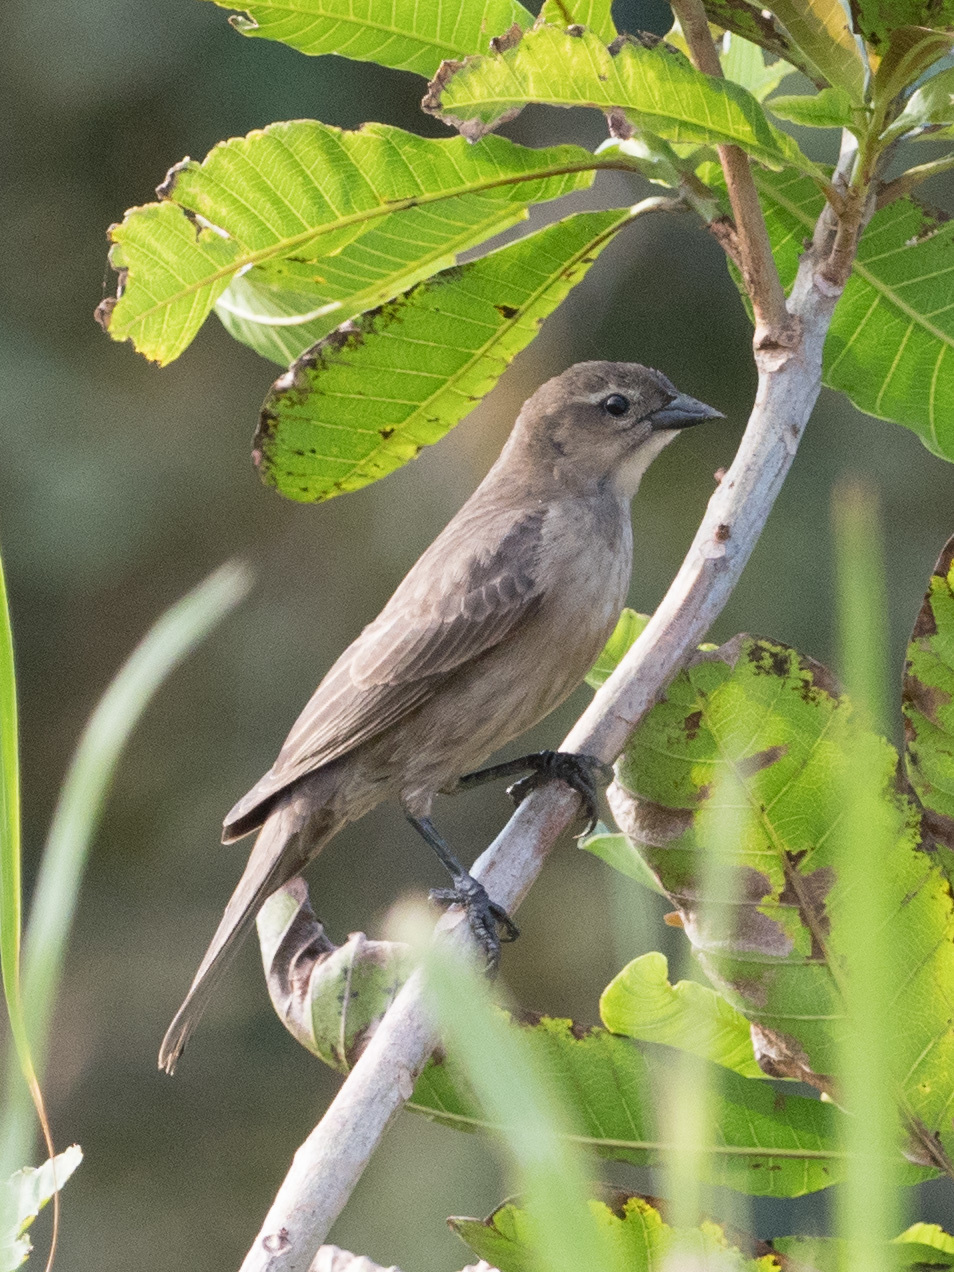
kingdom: Animalia
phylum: Chordata
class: Aves
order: Passeriformes
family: Icteridae
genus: Molothrus
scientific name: Molothrus bonariensis
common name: Shiny cowbird
